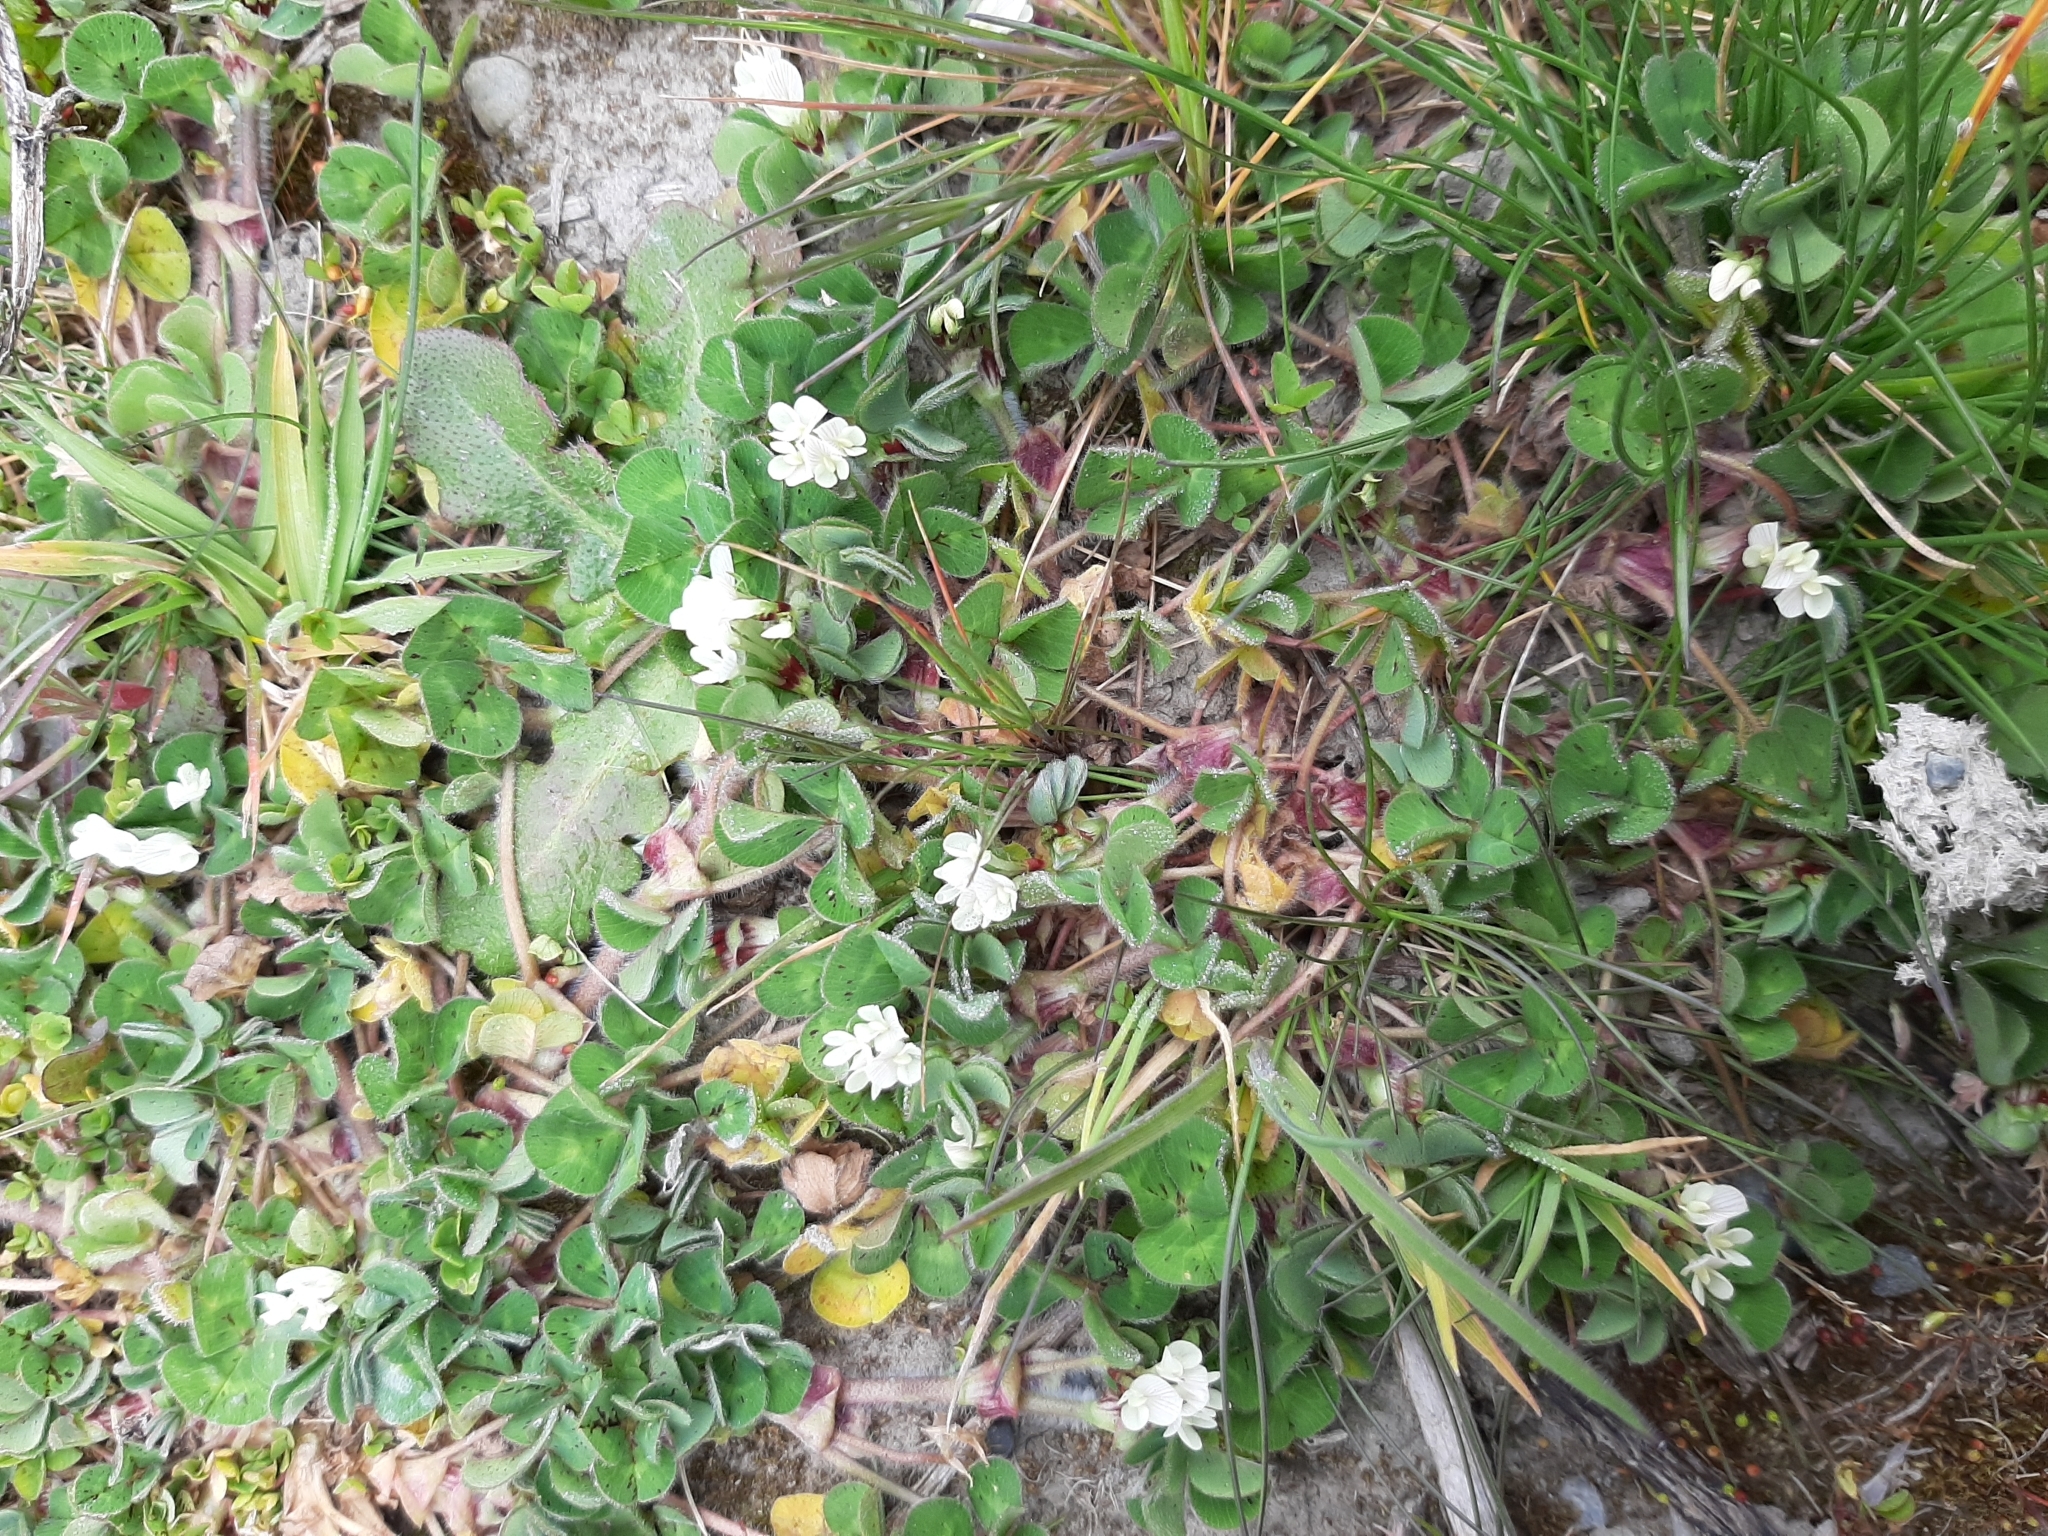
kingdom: Plantae
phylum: Tracheophyta
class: Magnoliopsida
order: Fabales
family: Fabaceae
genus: Trifolium
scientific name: Trifolium subterraneum
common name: Subterranean clover
